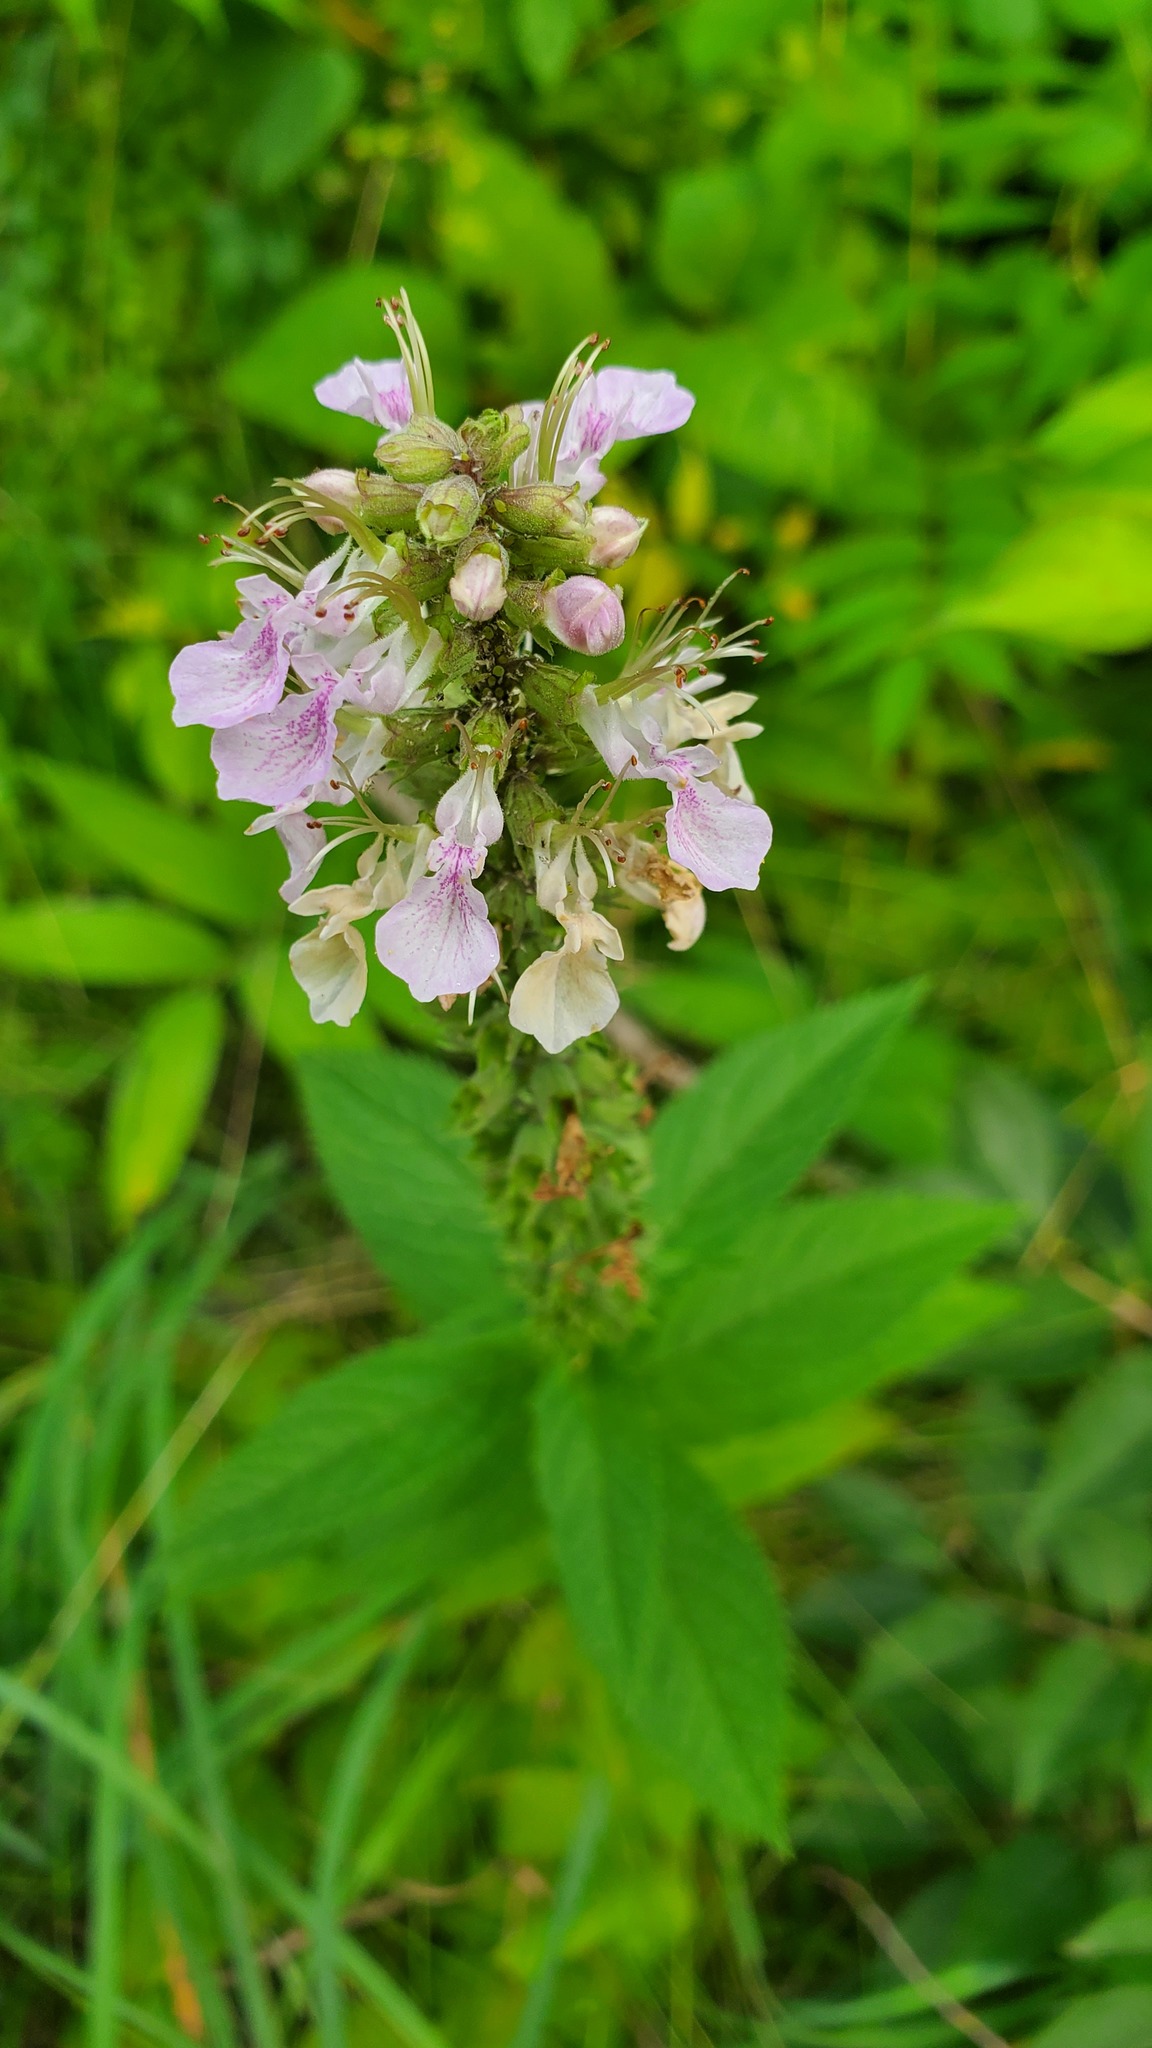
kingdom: Plantae
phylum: Tracheophyta
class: Magnoliopsida
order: Lamiales
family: Lamiaceae
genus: Teucrium
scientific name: Teucrium canadense
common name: American germander
